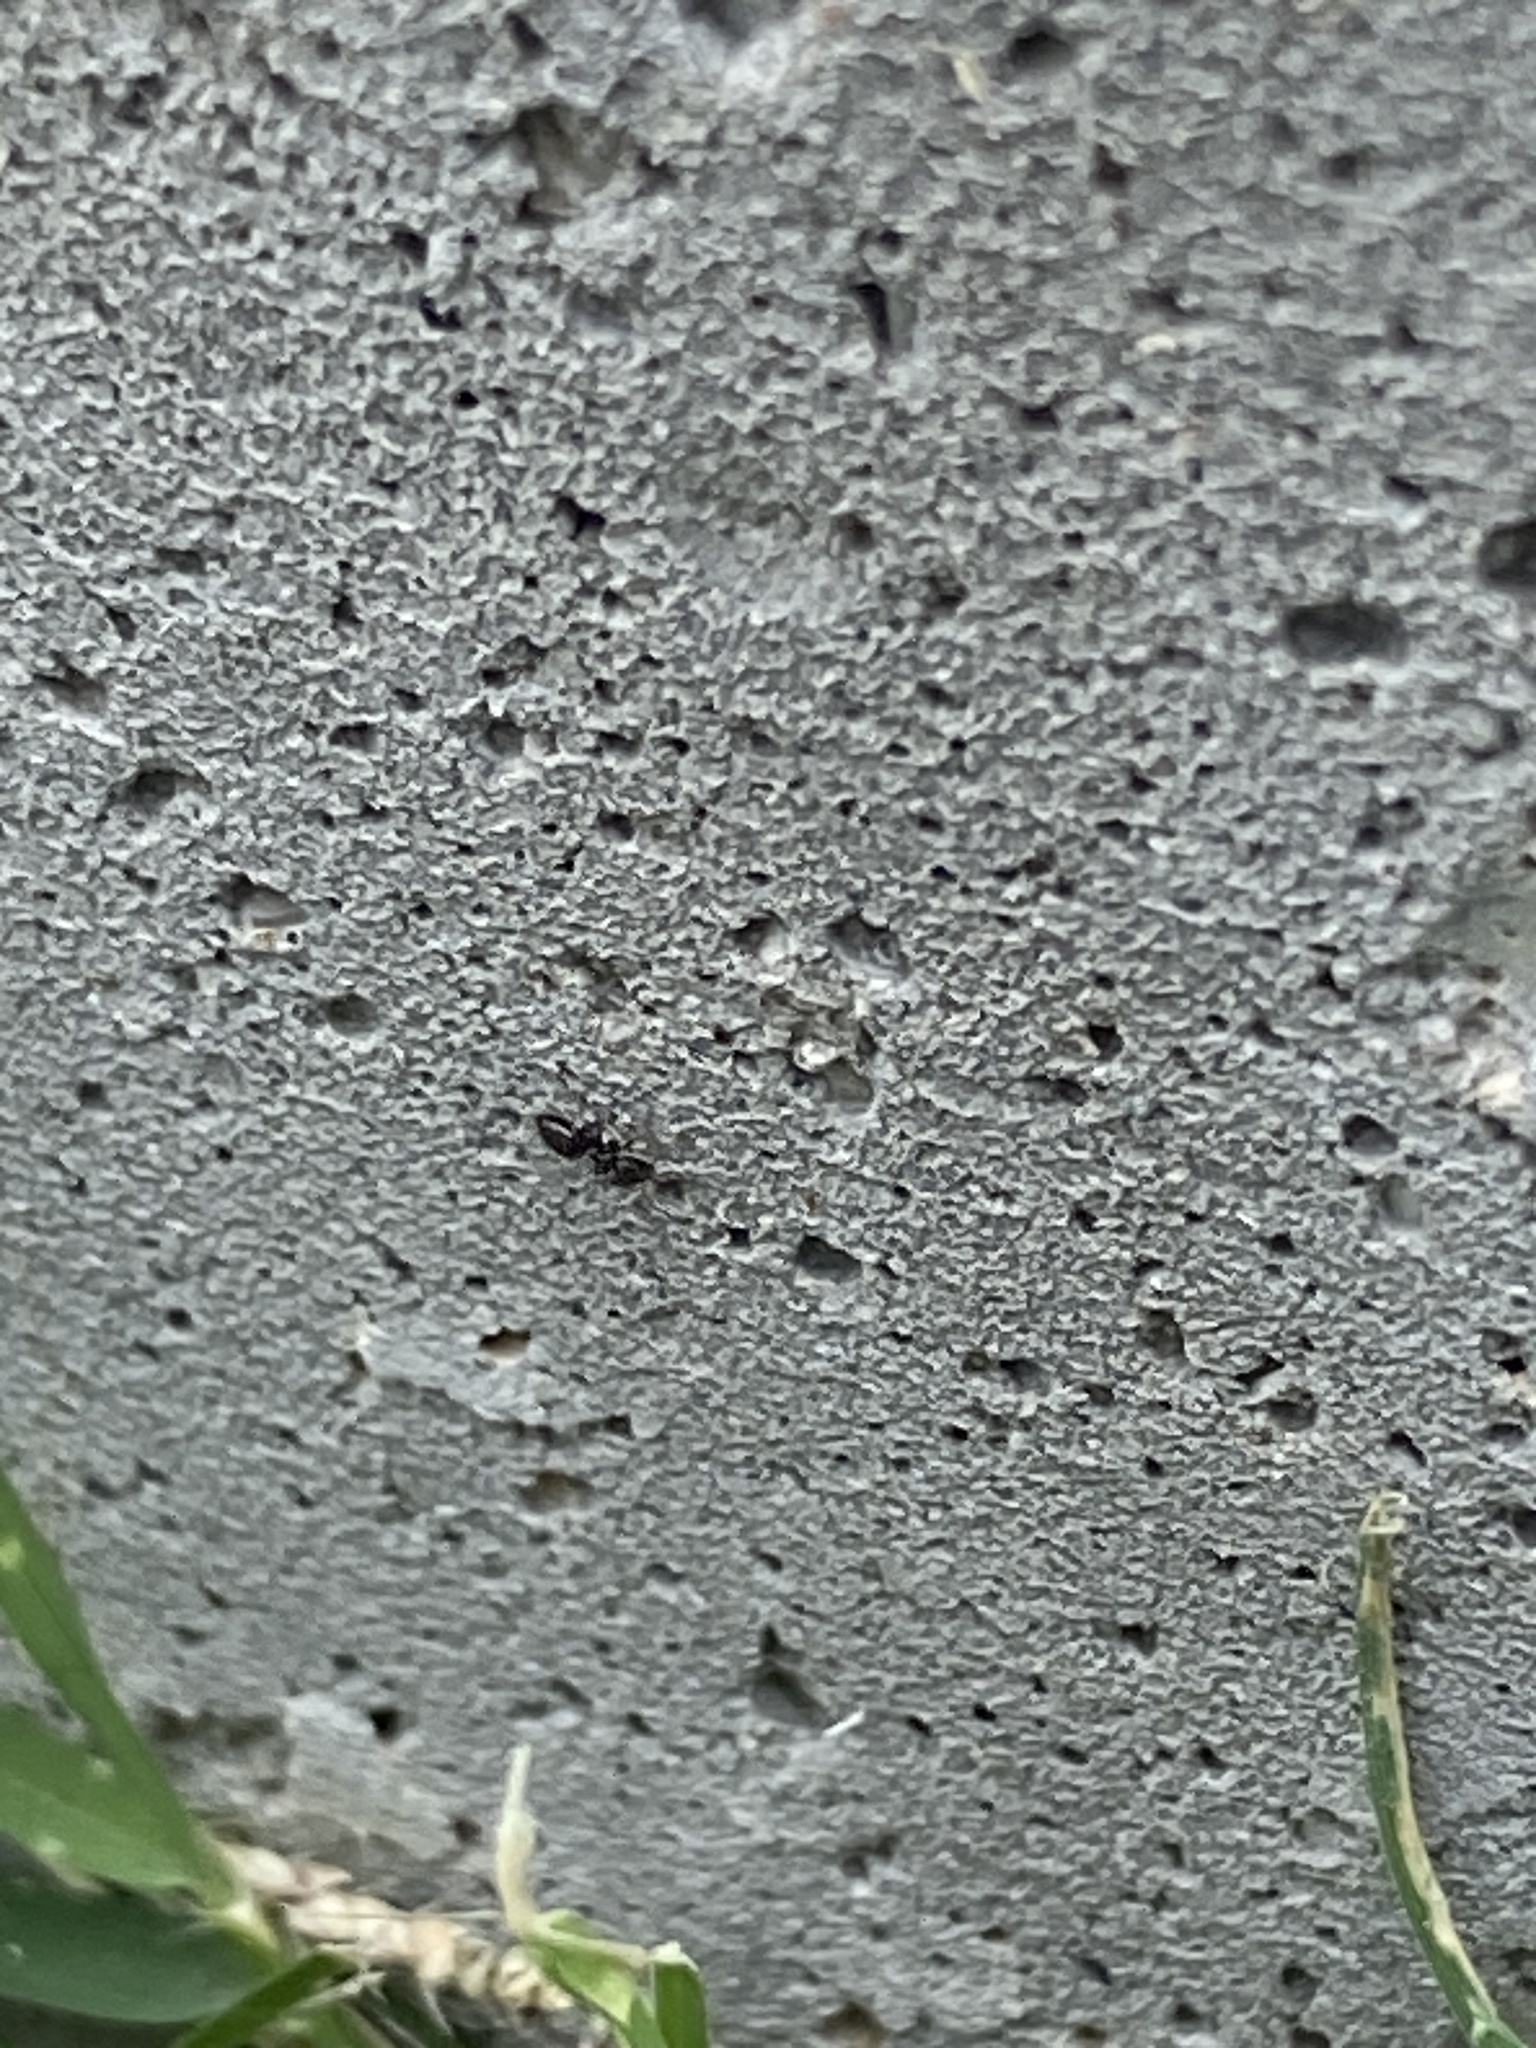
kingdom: Animalia
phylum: Arthropoda
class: Insecta
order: Hymenoptera
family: Formicidae
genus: Brachymyrmex
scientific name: Brachymyrmex patagonicus
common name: Dark rover ant
